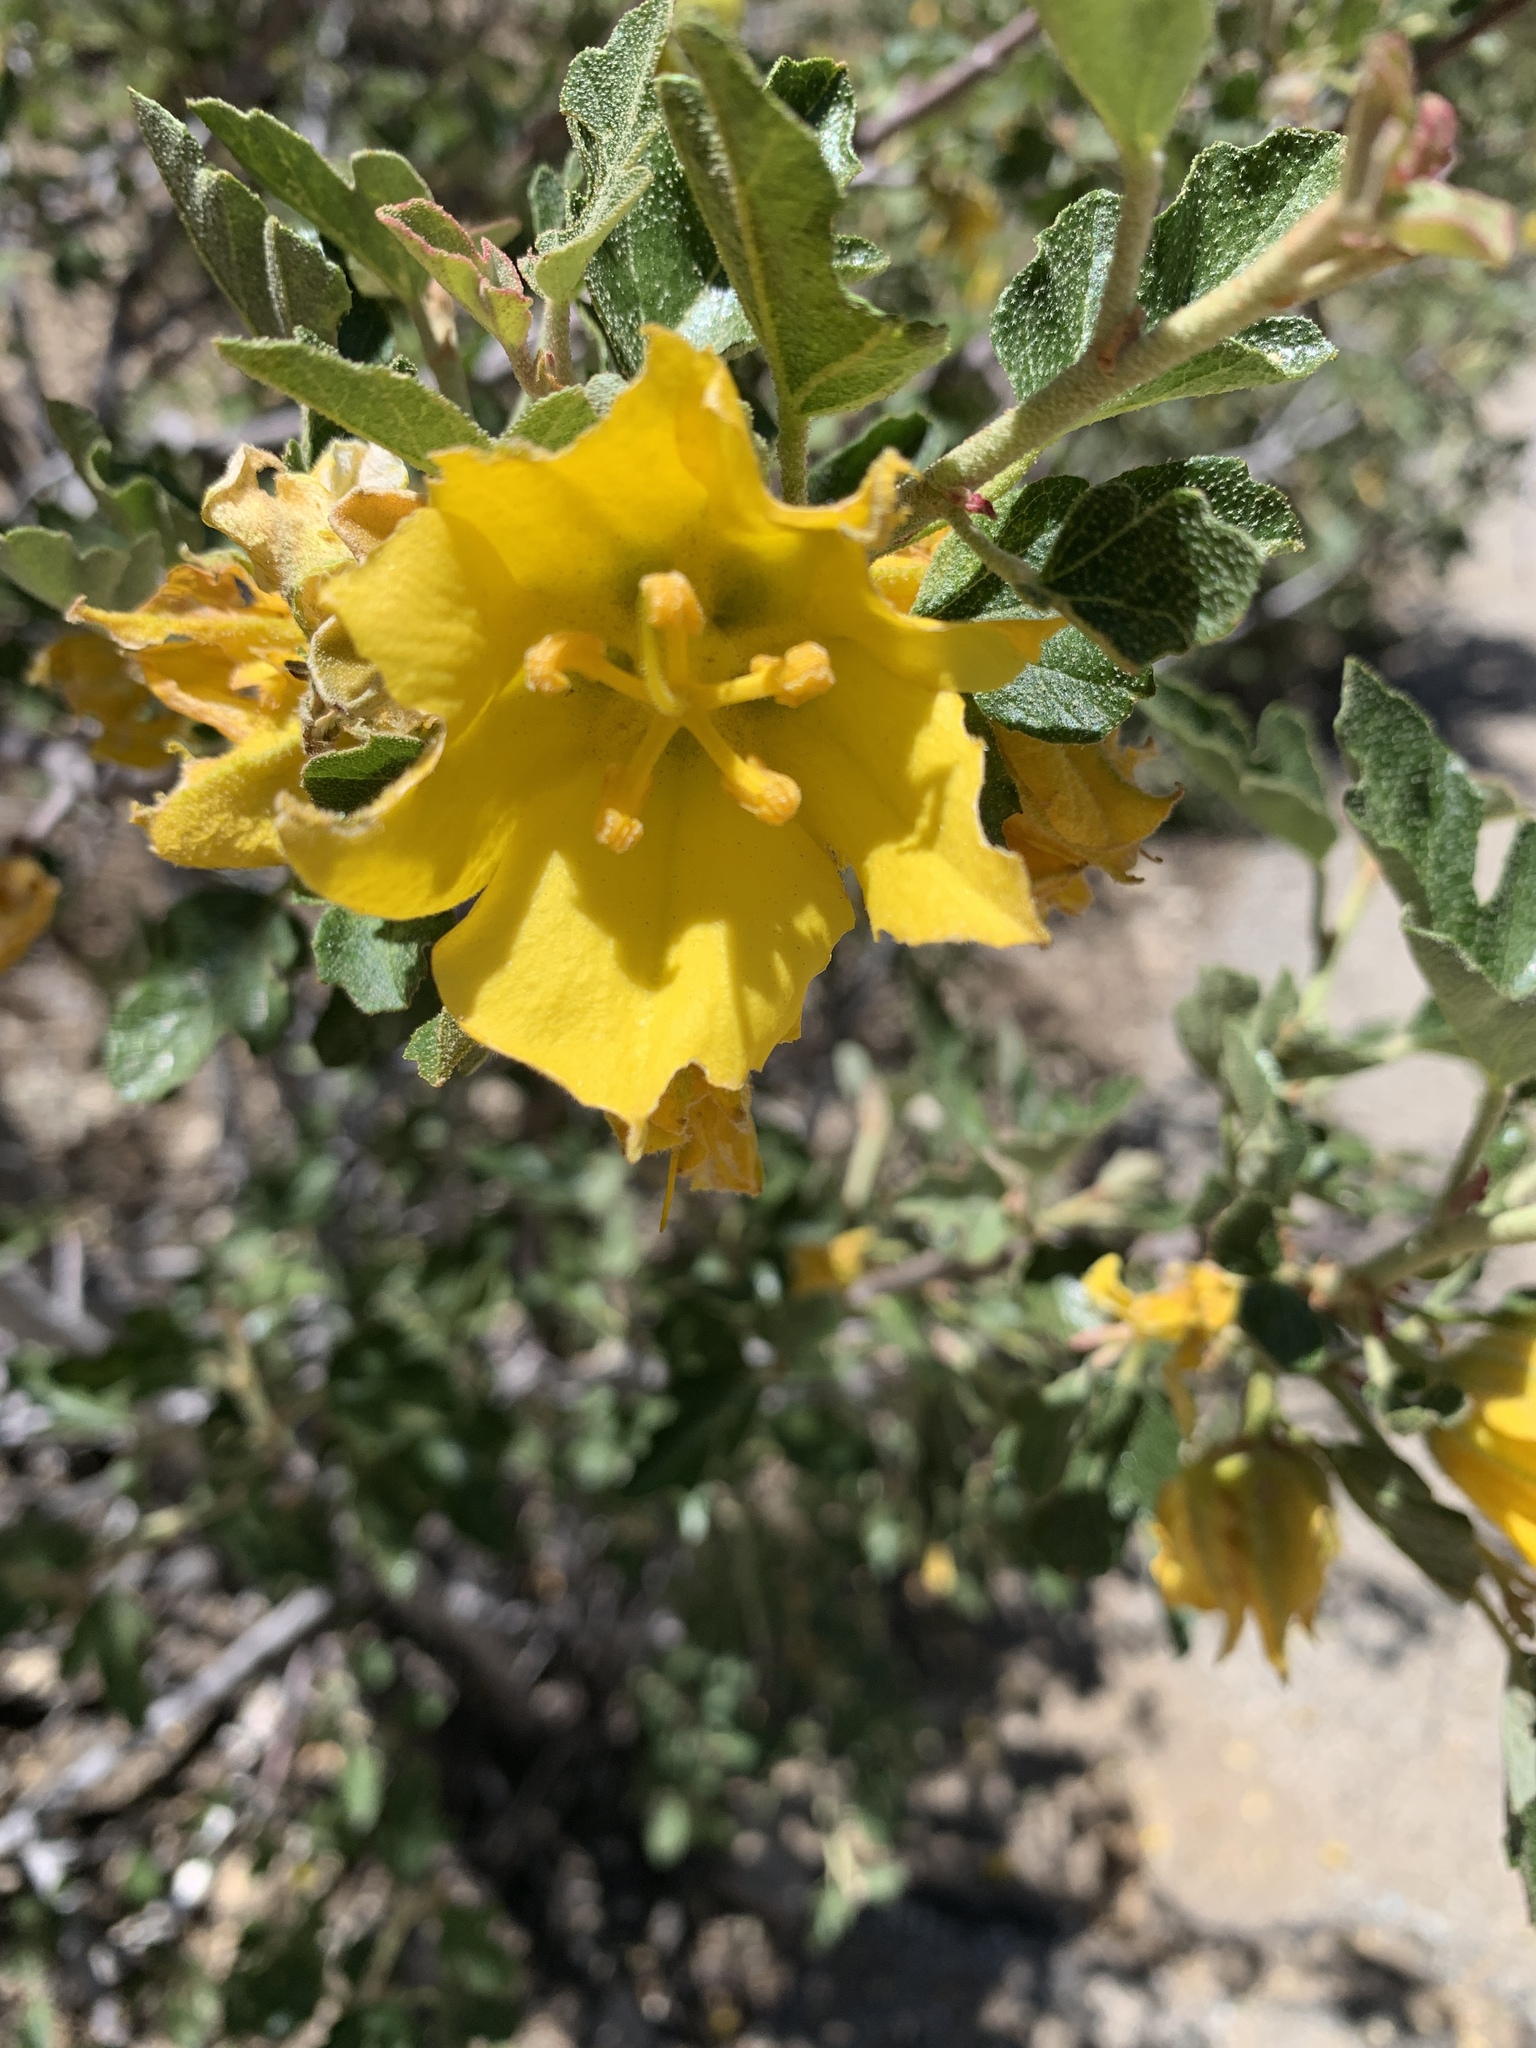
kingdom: Plantae
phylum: Tracheophyta
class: Magnoliopsida
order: Malvales
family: Malvaceae
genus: Fremontodendron
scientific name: Fremontodendron californicum
